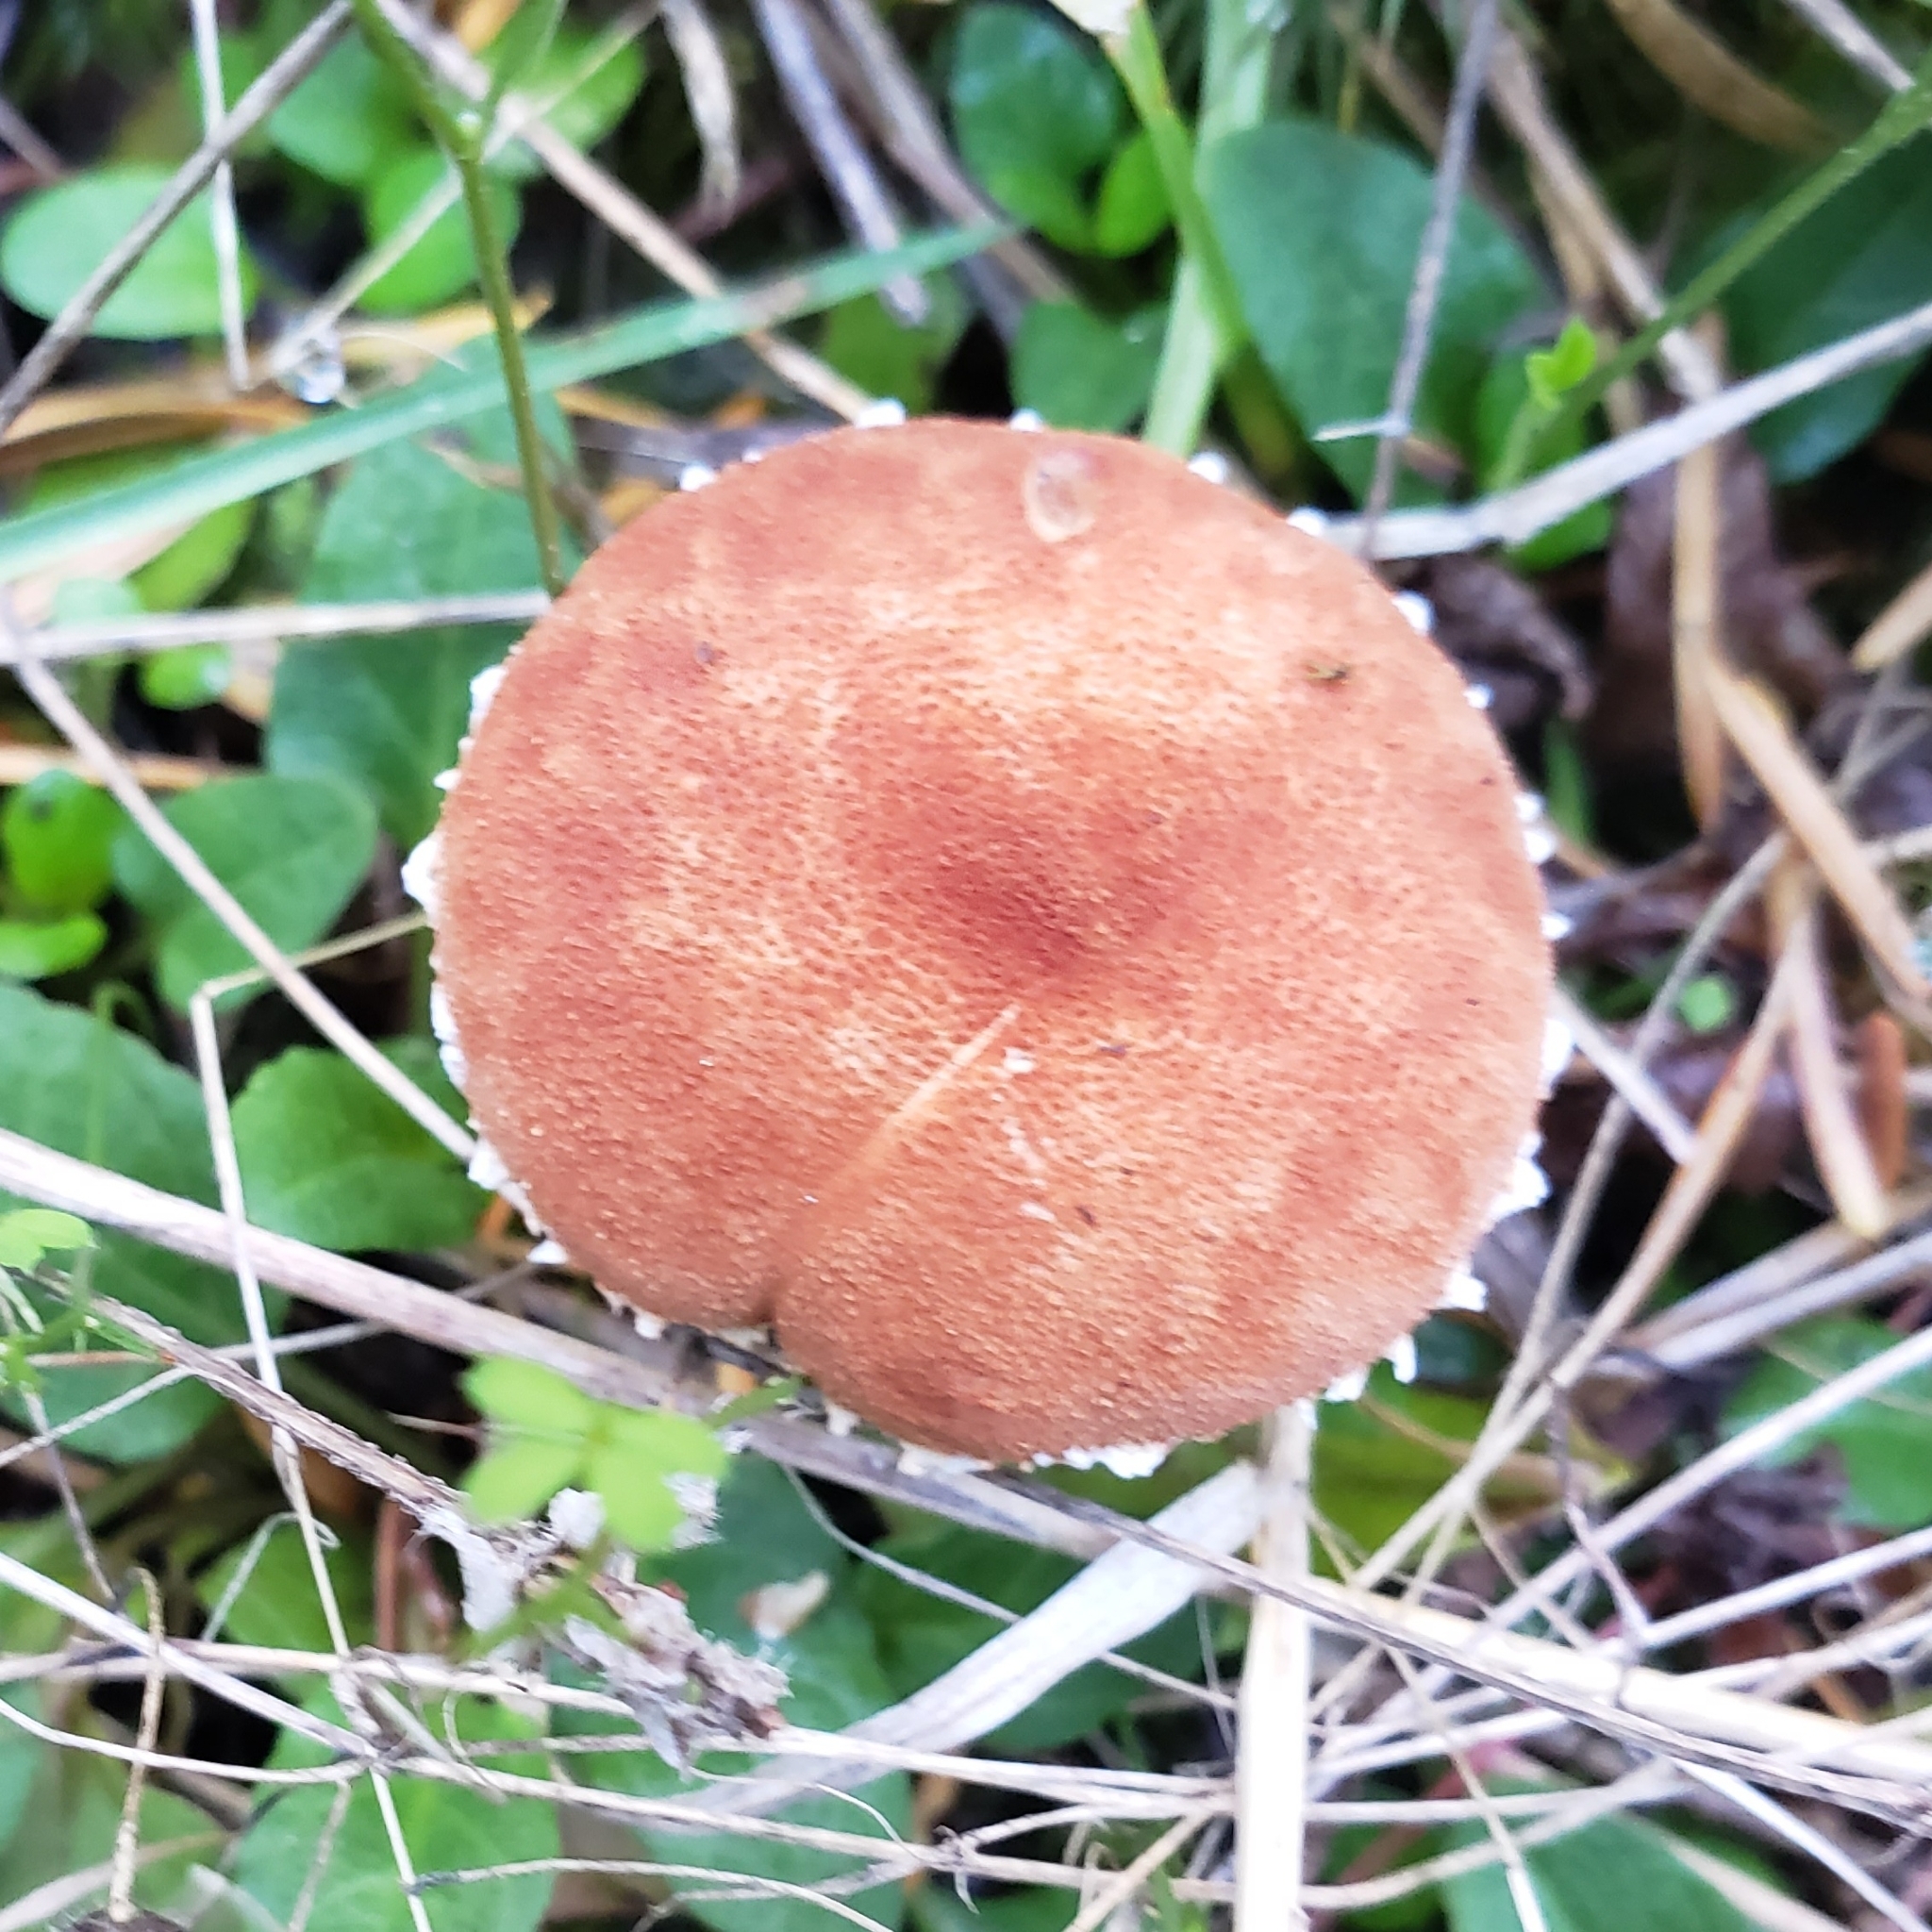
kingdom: Fungi
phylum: Basidiomycota
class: Agaricomycetes
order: Agaricales
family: Agaricaceae
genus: Cystodermella
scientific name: Cystodermella granulosa
